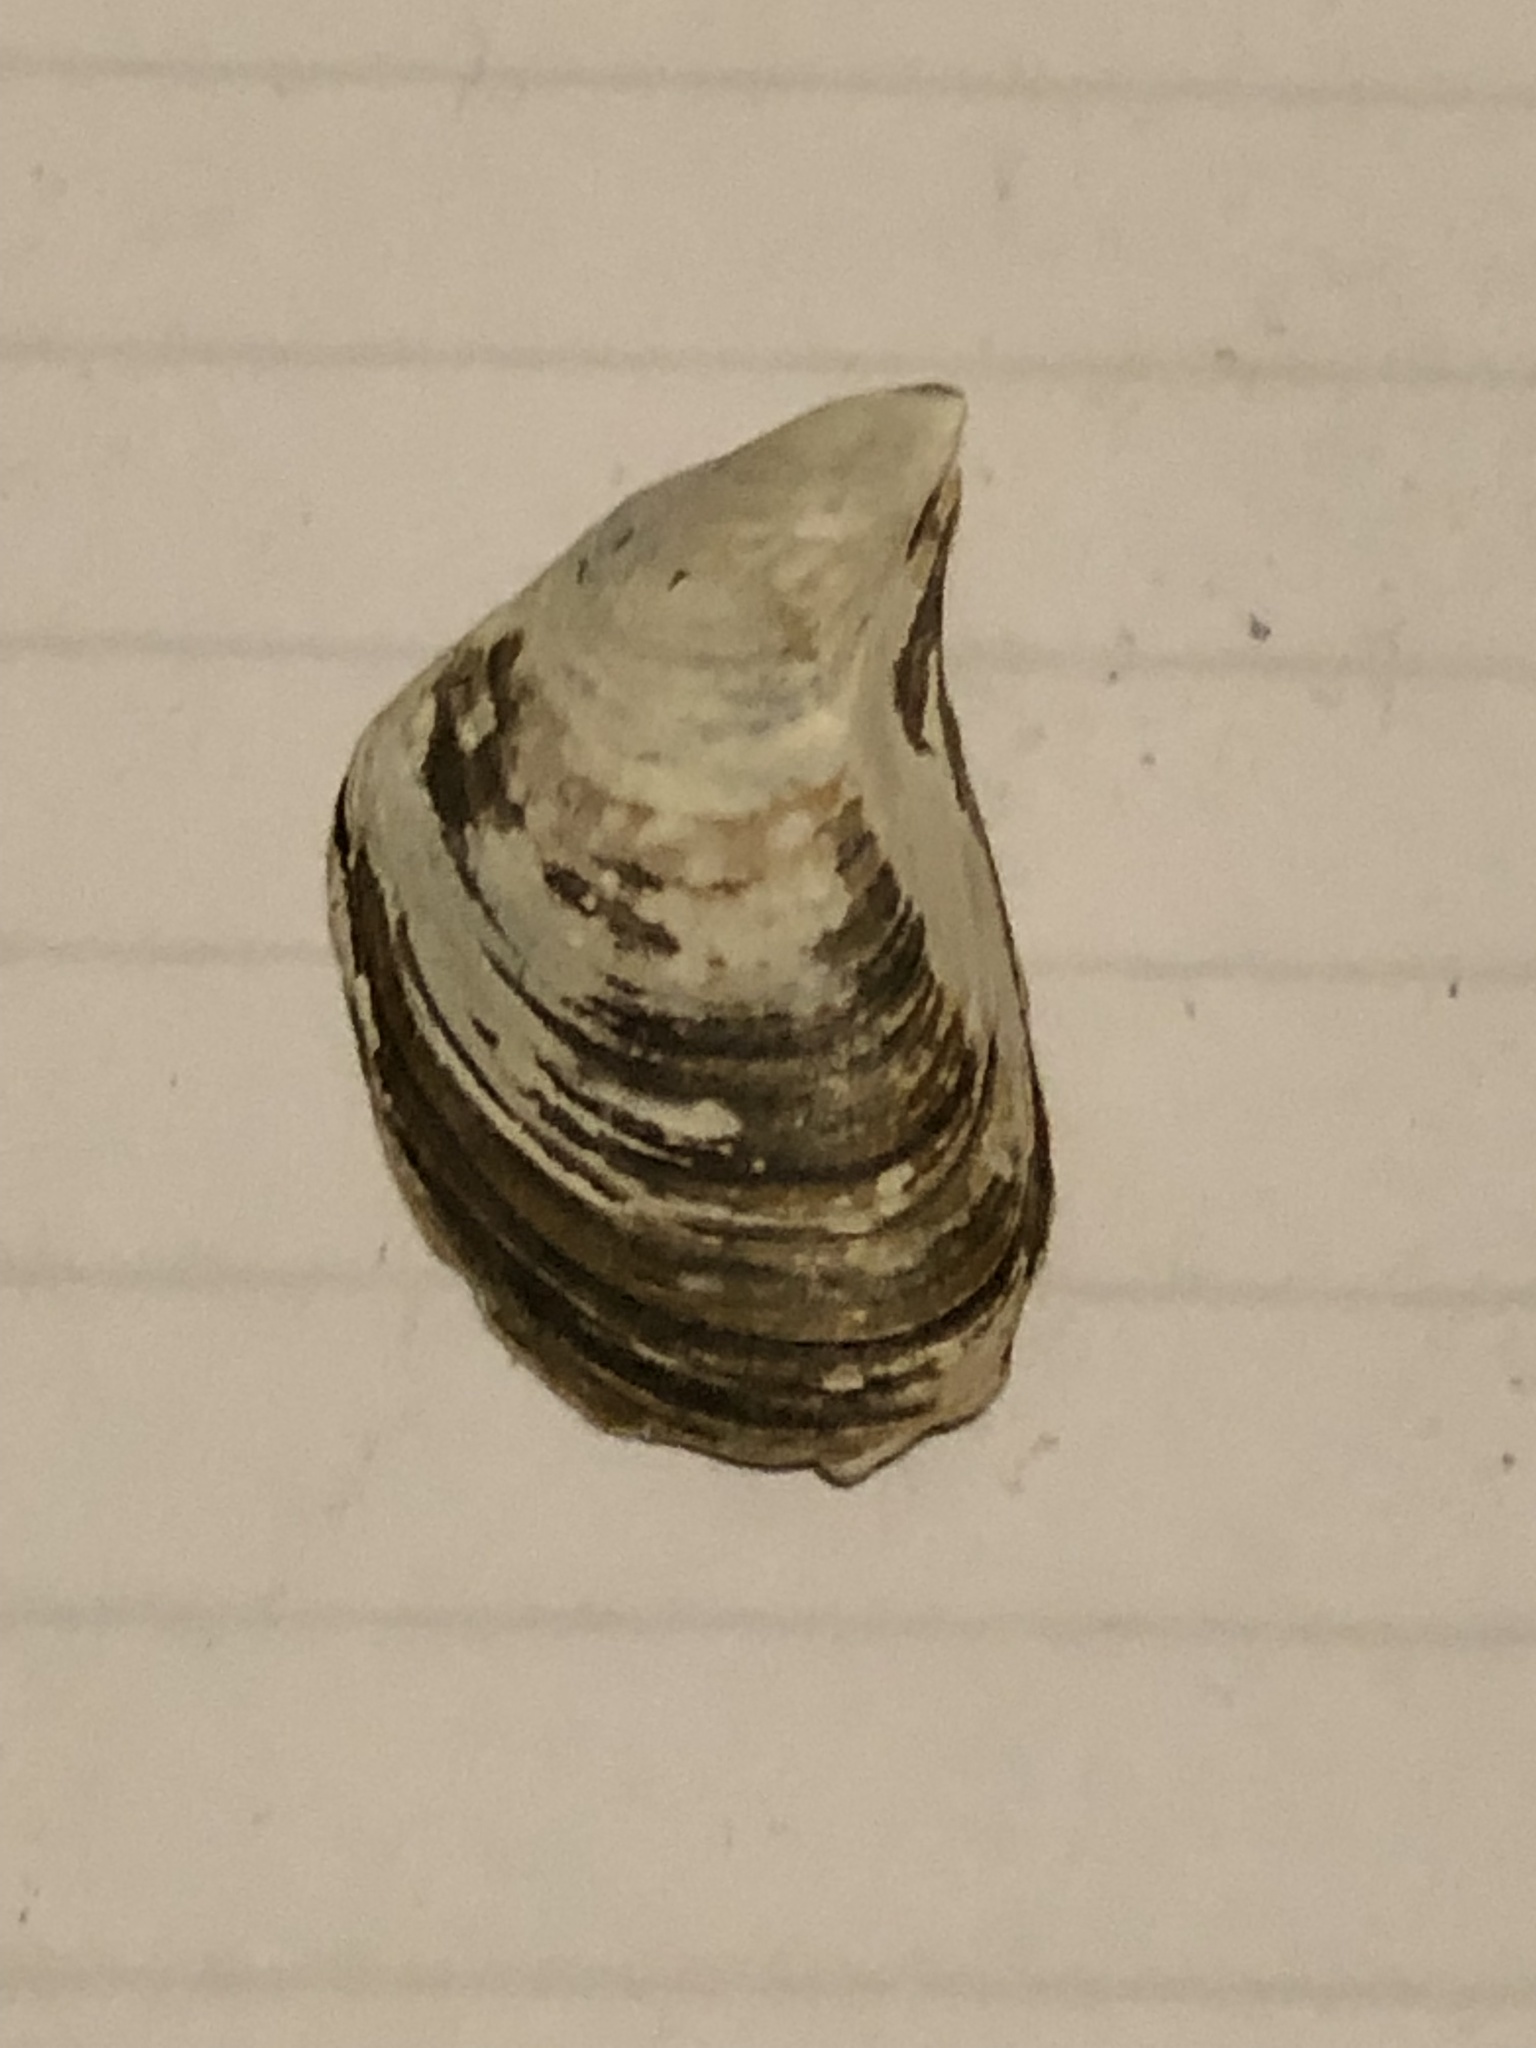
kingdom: Animalia
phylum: Mollusca
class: Bivalvia
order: Myida
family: Dreissenidae
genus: Dreissena
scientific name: Dreissena bugensis
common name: Quagga mussel
